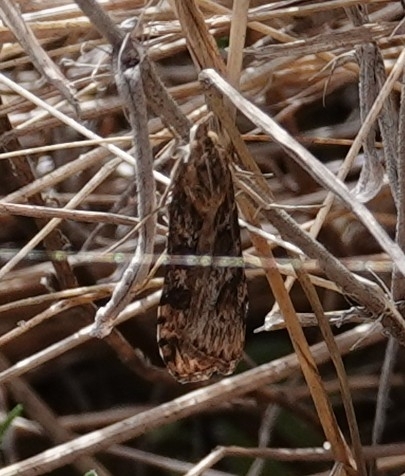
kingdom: Animalia
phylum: Arthropoda
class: Insecta
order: Lepidoptera
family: Crambidae
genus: Nomophila
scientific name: Nomophila nearctica
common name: American rush veneer
